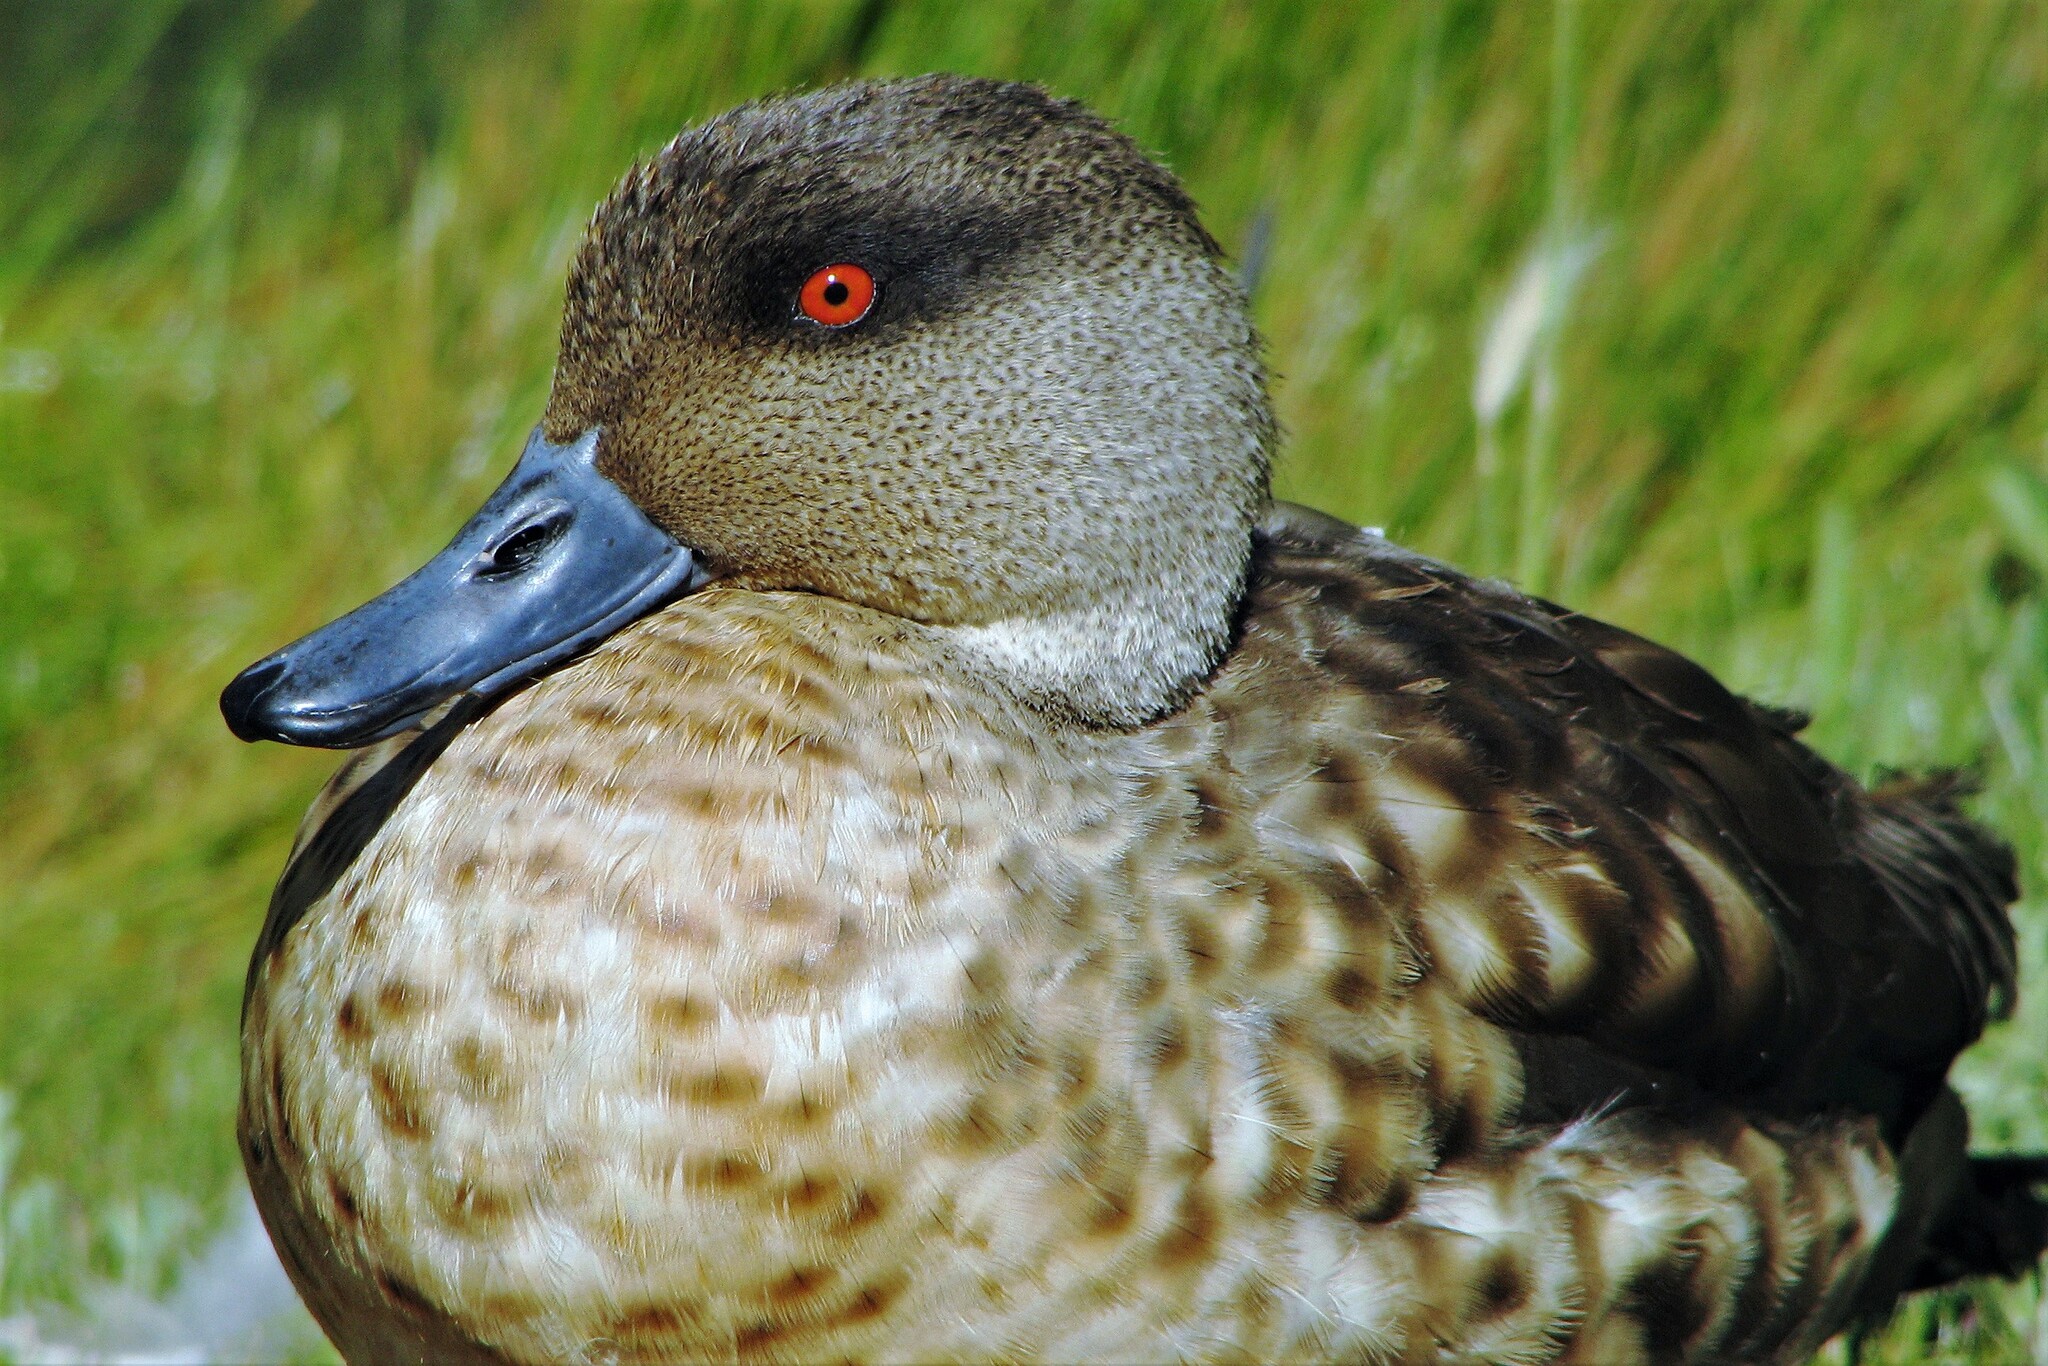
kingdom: Animalia
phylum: Chordata
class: Aves
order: Anseriformes
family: Anatidae
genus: Lophonetta
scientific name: Lophonetta specularioides
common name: Crested duck
